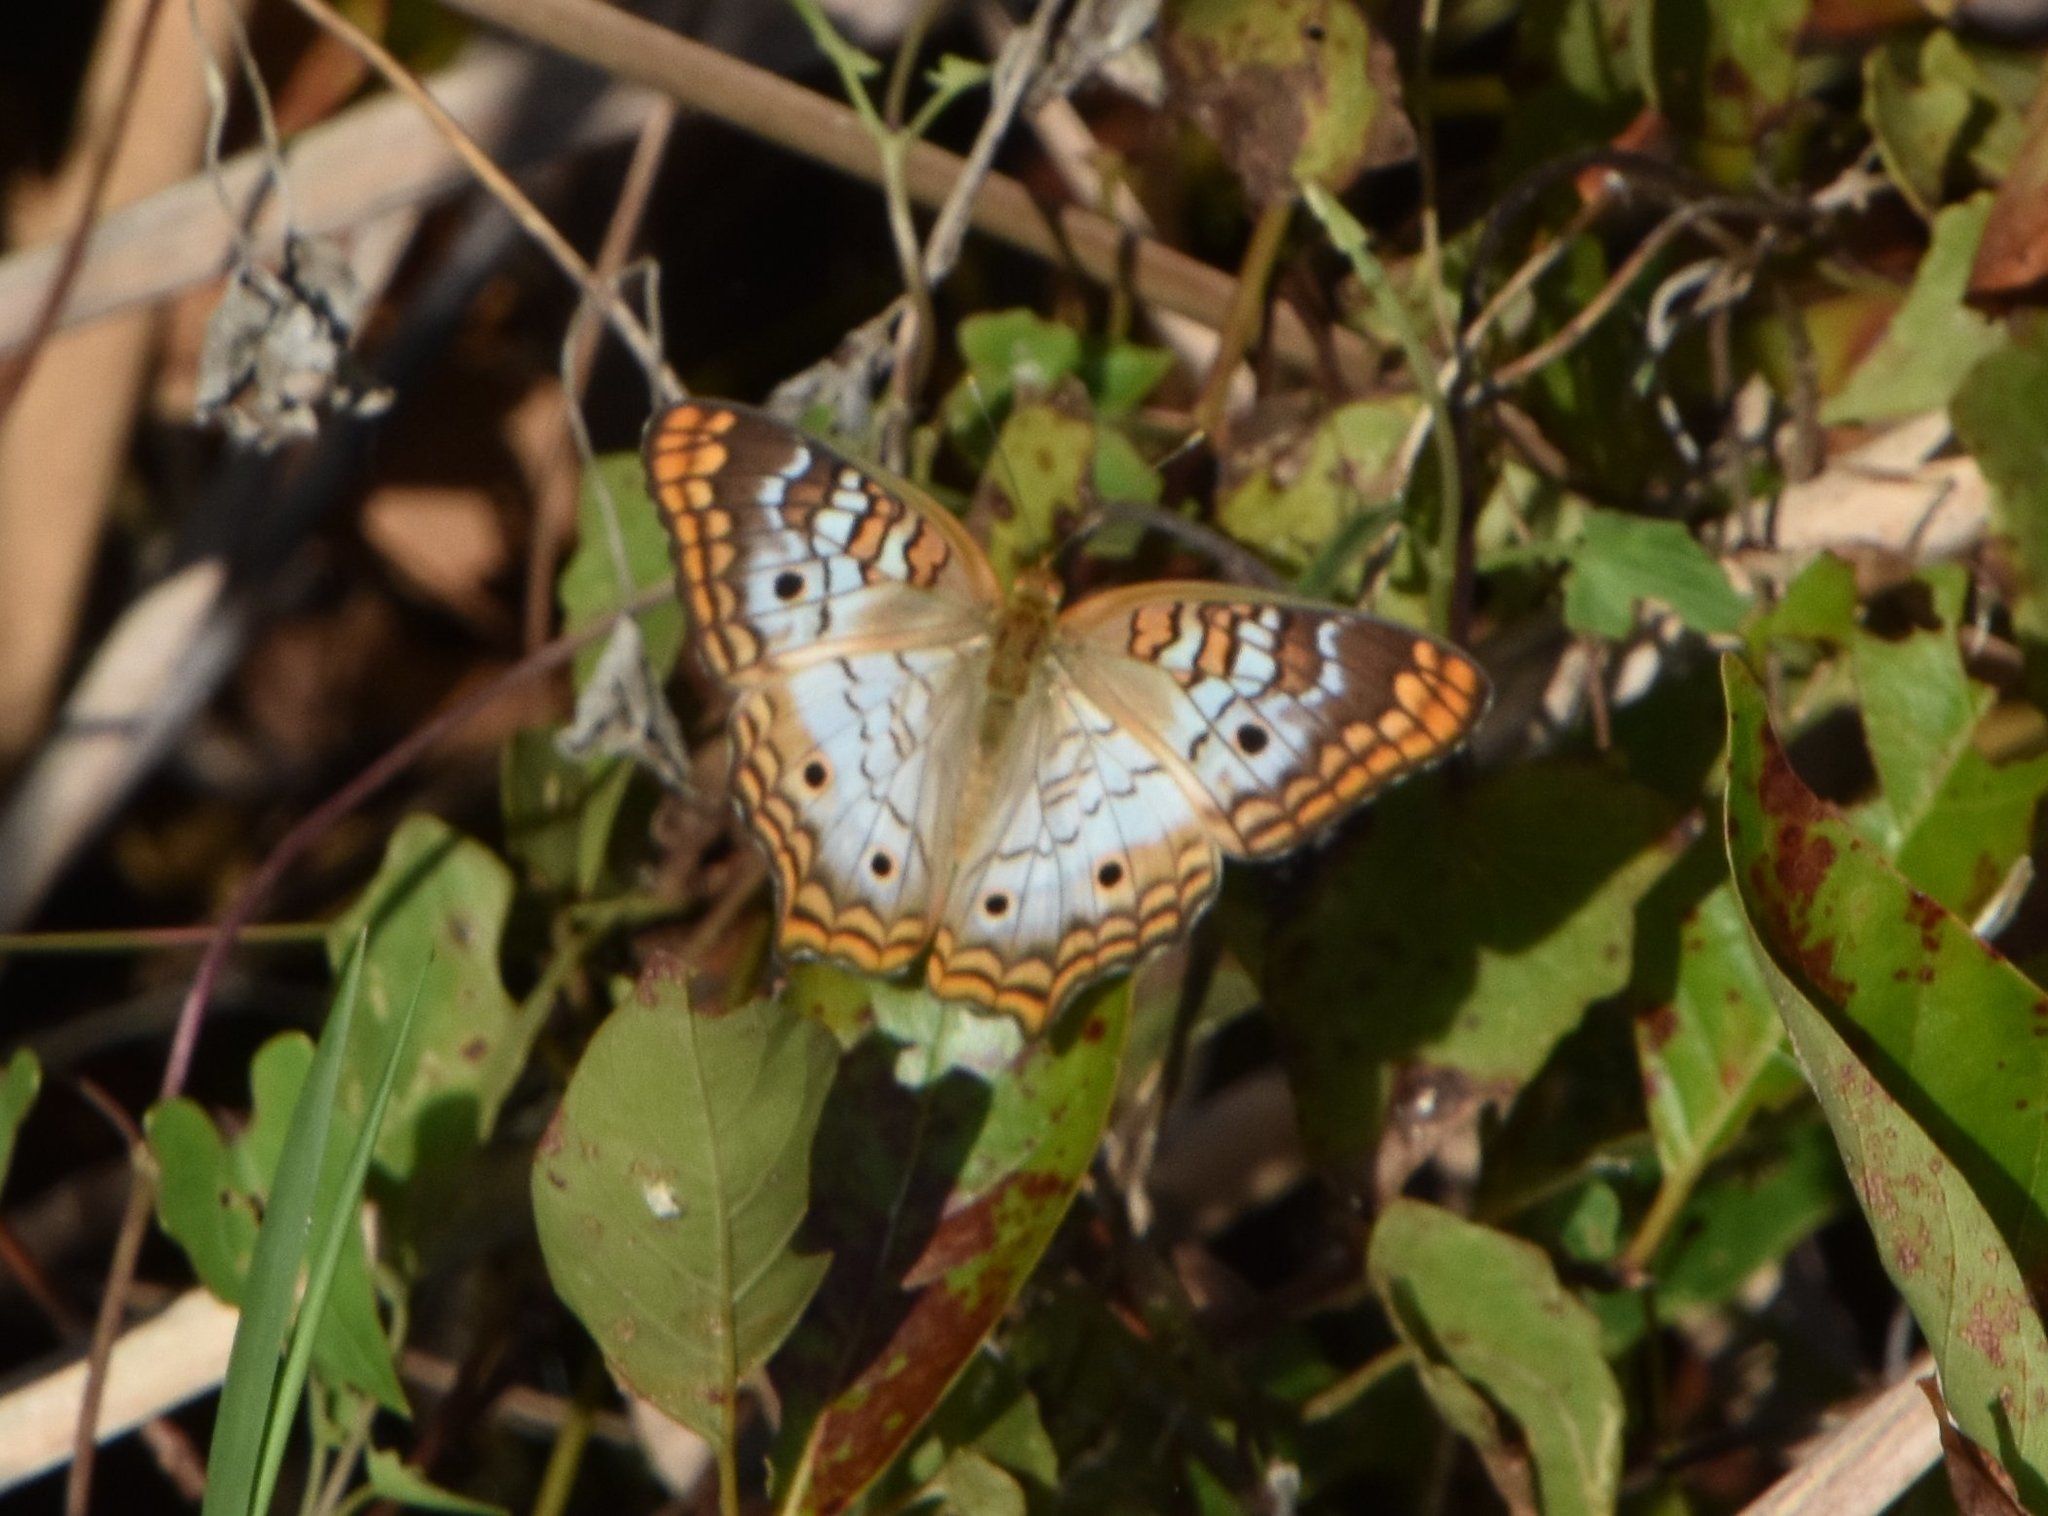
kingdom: Animalia
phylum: Arthropoda
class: Insecta
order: Lepidoptera
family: Nymphalidae
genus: Anartia
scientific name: Anartia jatrophae
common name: White peacock
